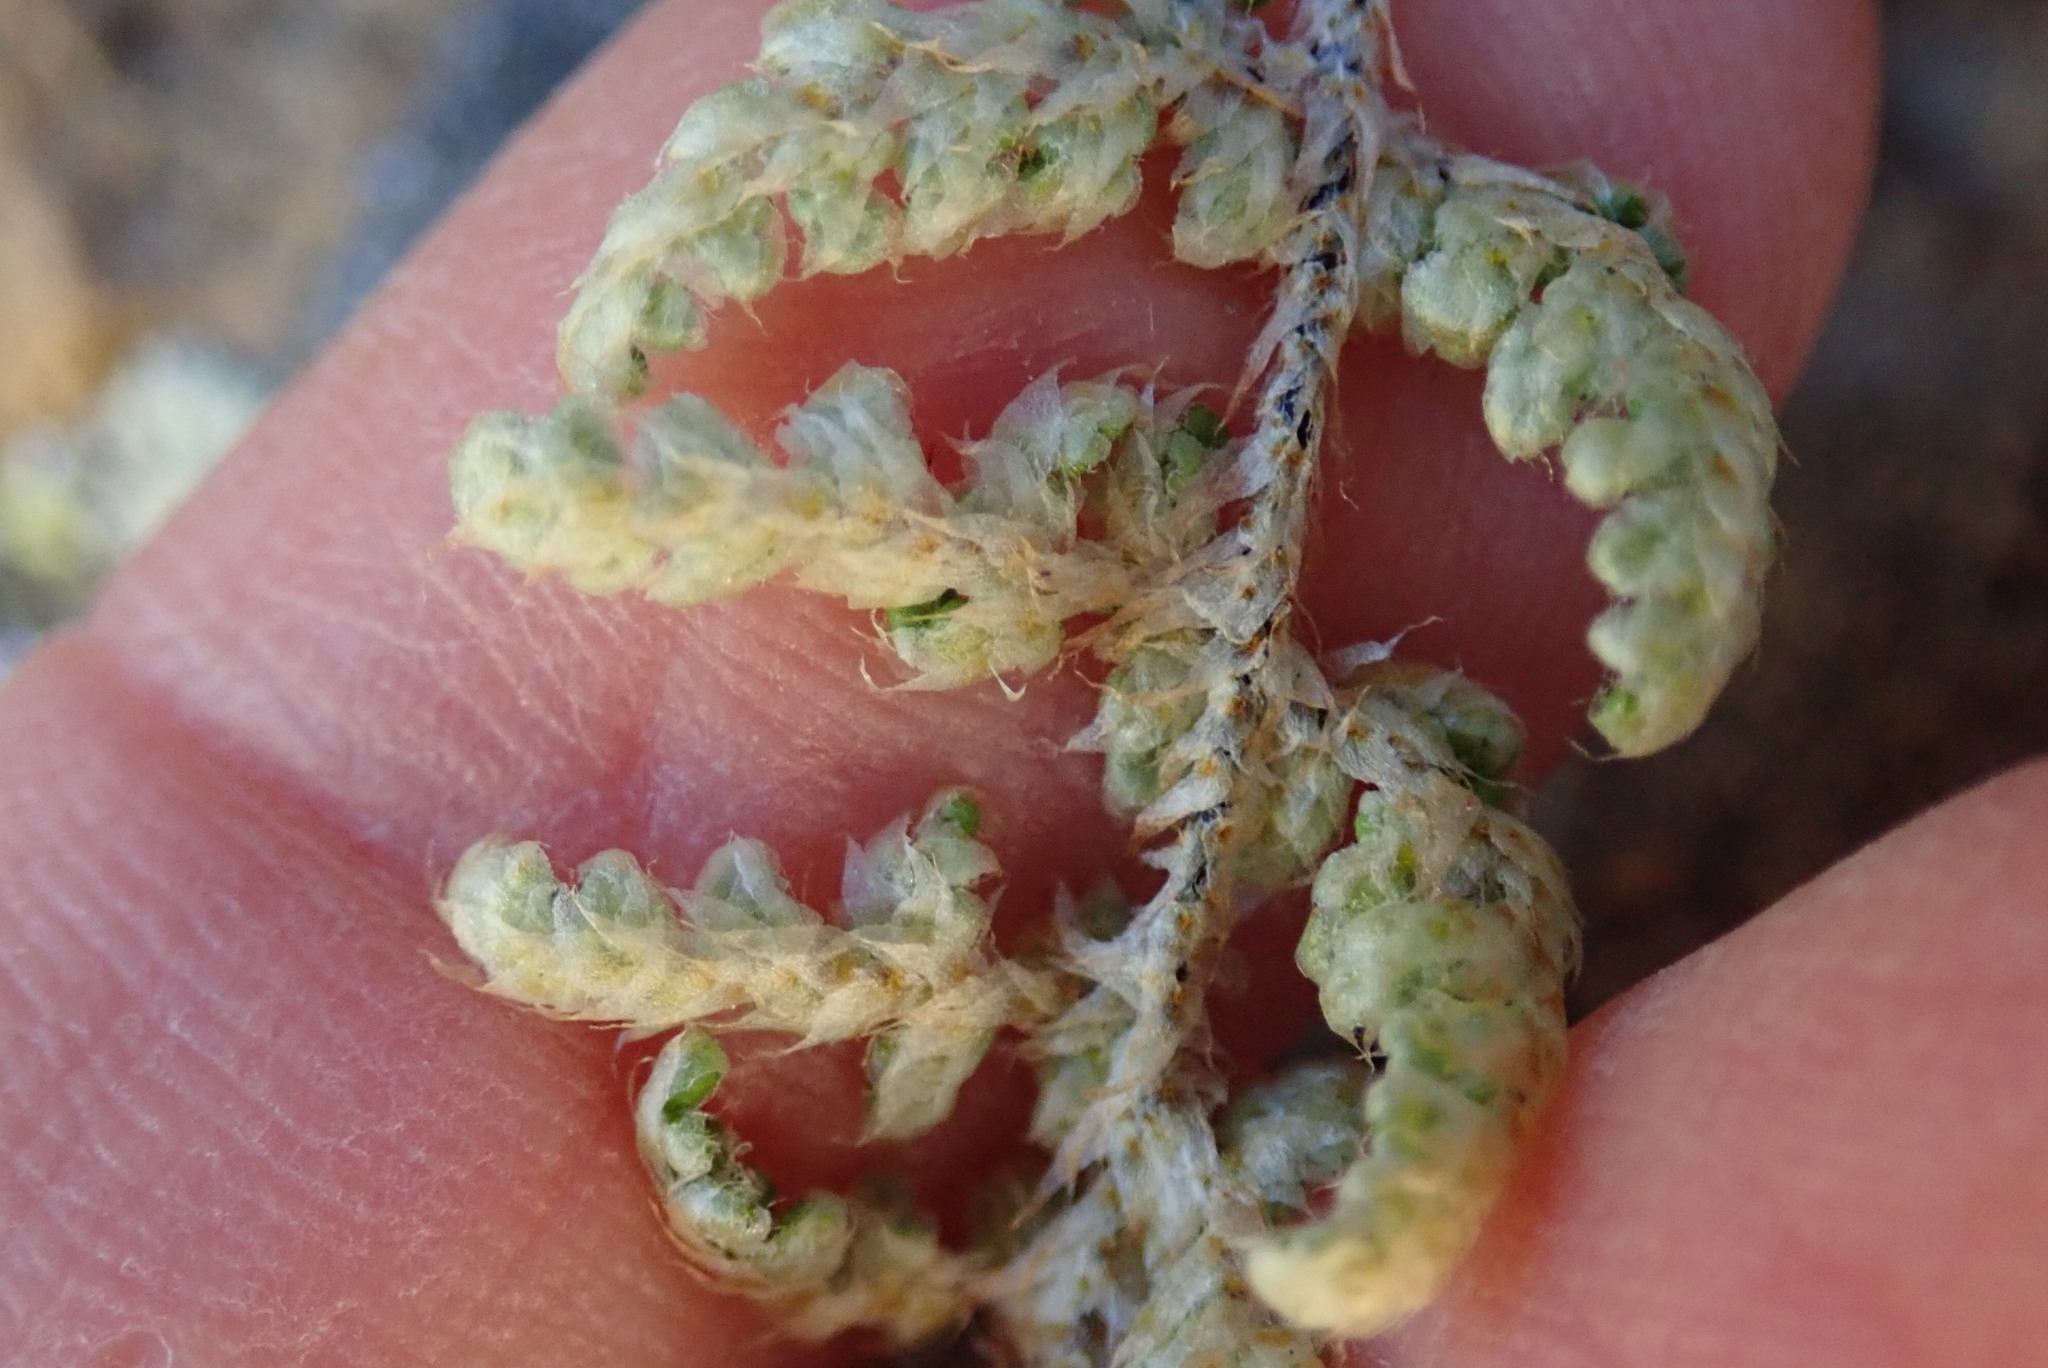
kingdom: Plantae
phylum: Tracheophyta
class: Polypodiopsida
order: Polypodiales
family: Pteridaceae
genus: Myriopteris
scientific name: Myriopteris covillei
